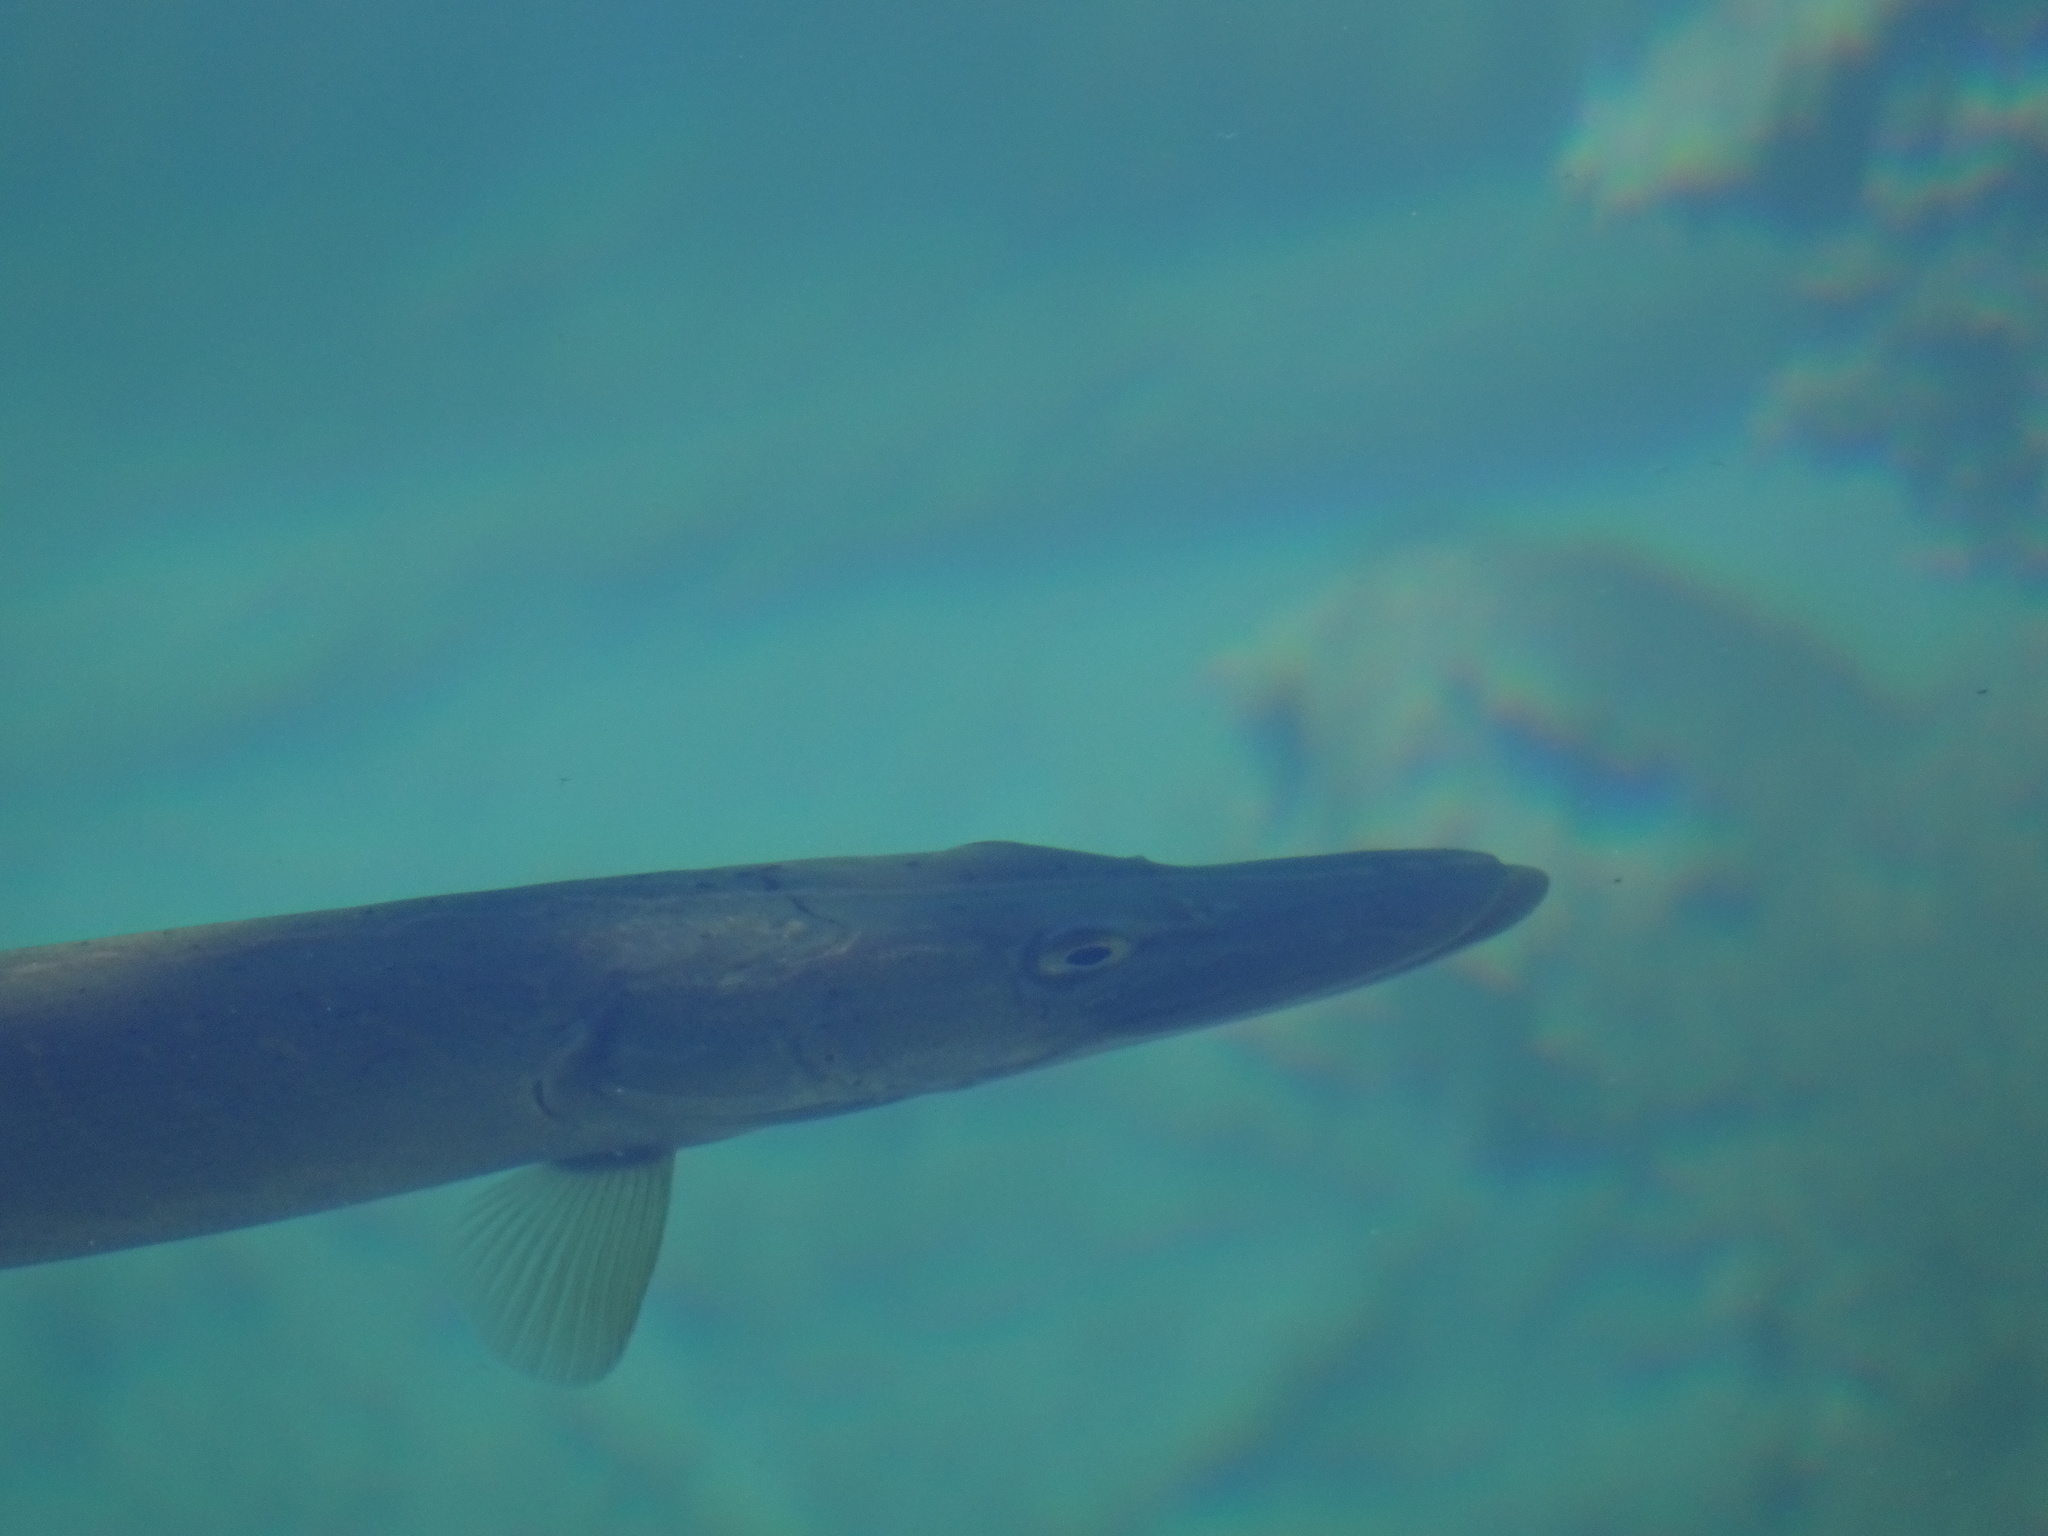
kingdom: Animalia
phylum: Chordata
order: Esociformes
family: Esocidae
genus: Esox
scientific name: Esox lucius
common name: Northern pike
